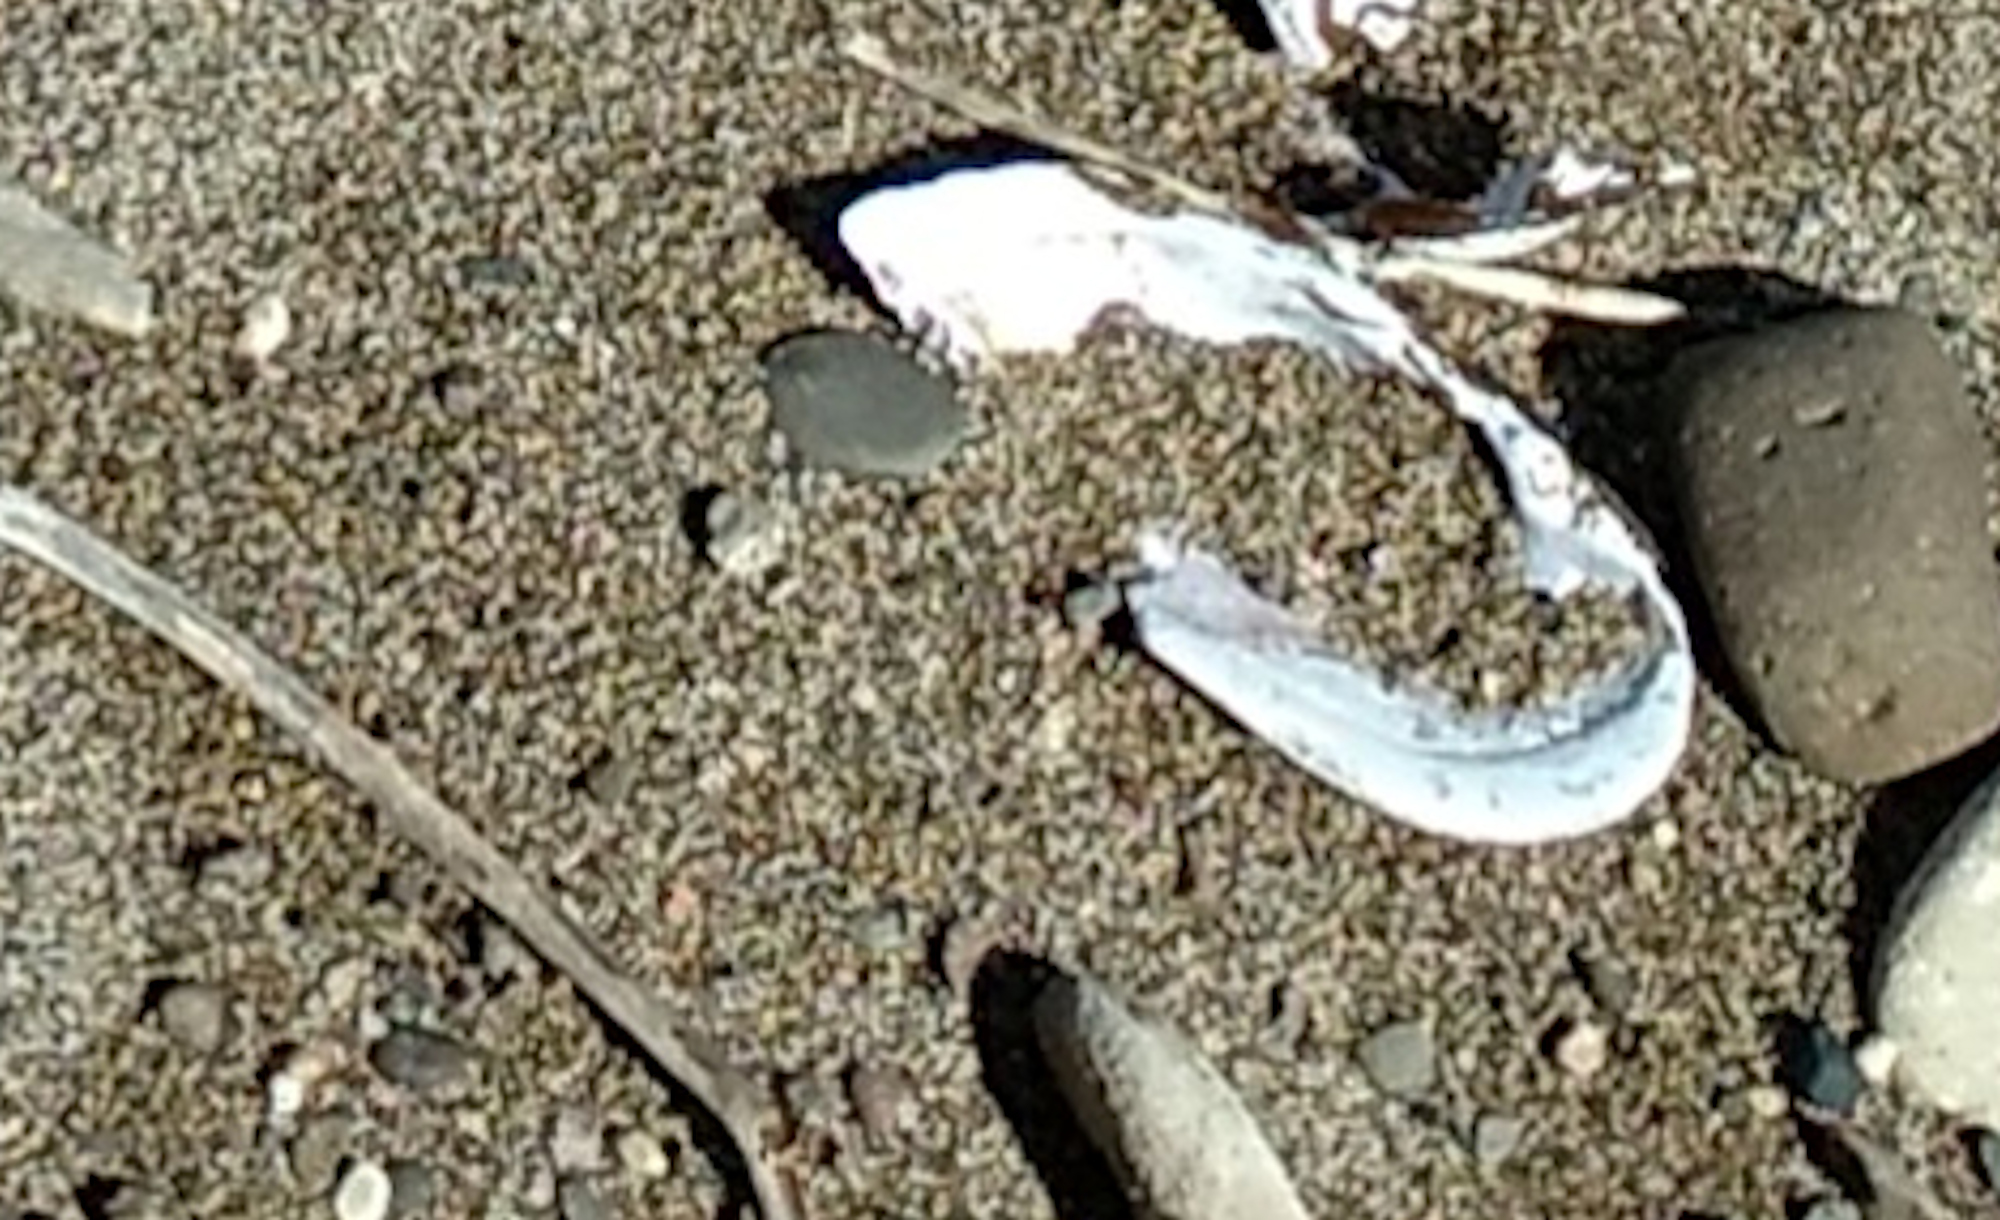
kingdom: Animalia
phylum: Mollusca
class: Bivalvia
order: Unionida
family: Margaritiferidae
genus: Margaritifera
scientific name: Margaritifera falcata
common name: Western pearlshell
